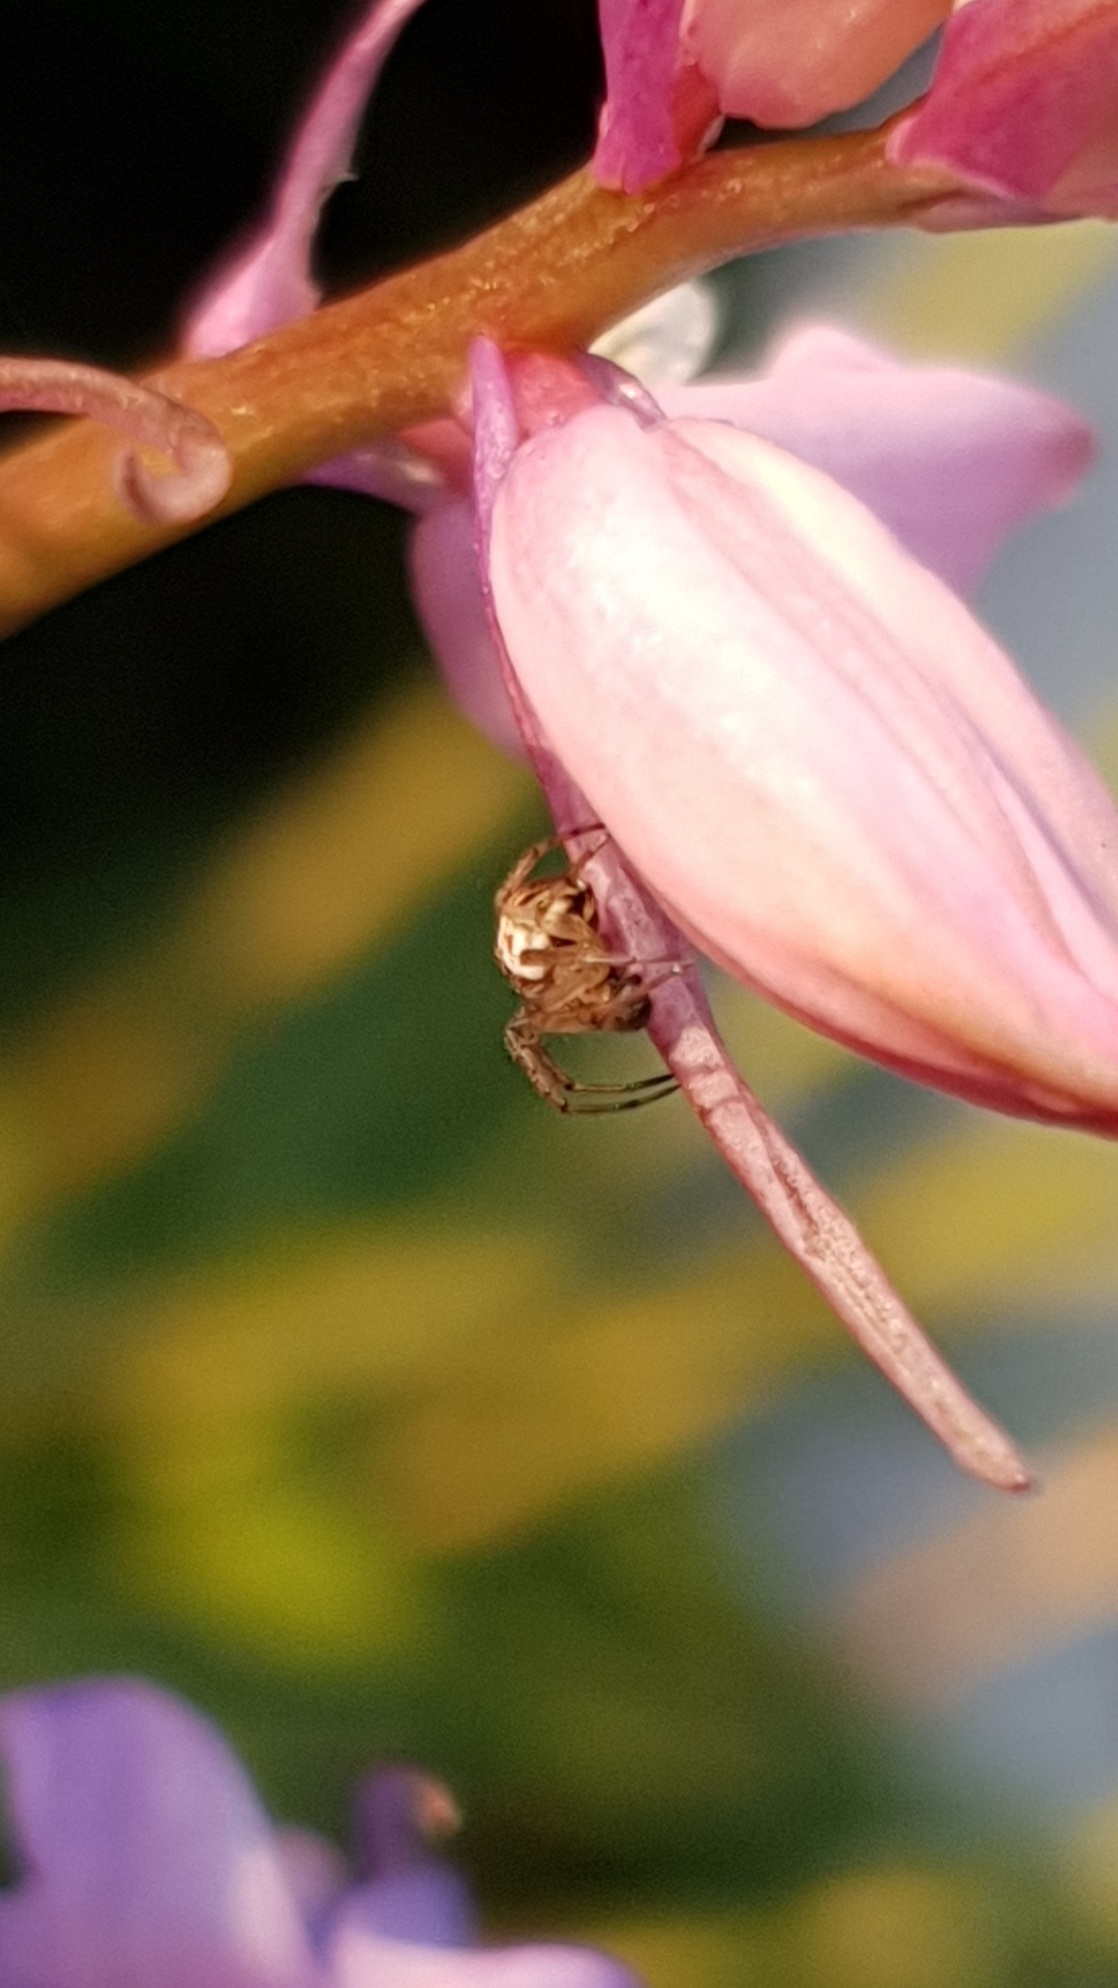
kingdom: Animalia
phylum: Arthropoda
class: Arachnida
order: Araneae
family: Araneidae
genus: Mangora
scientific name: Mangora acalypha
